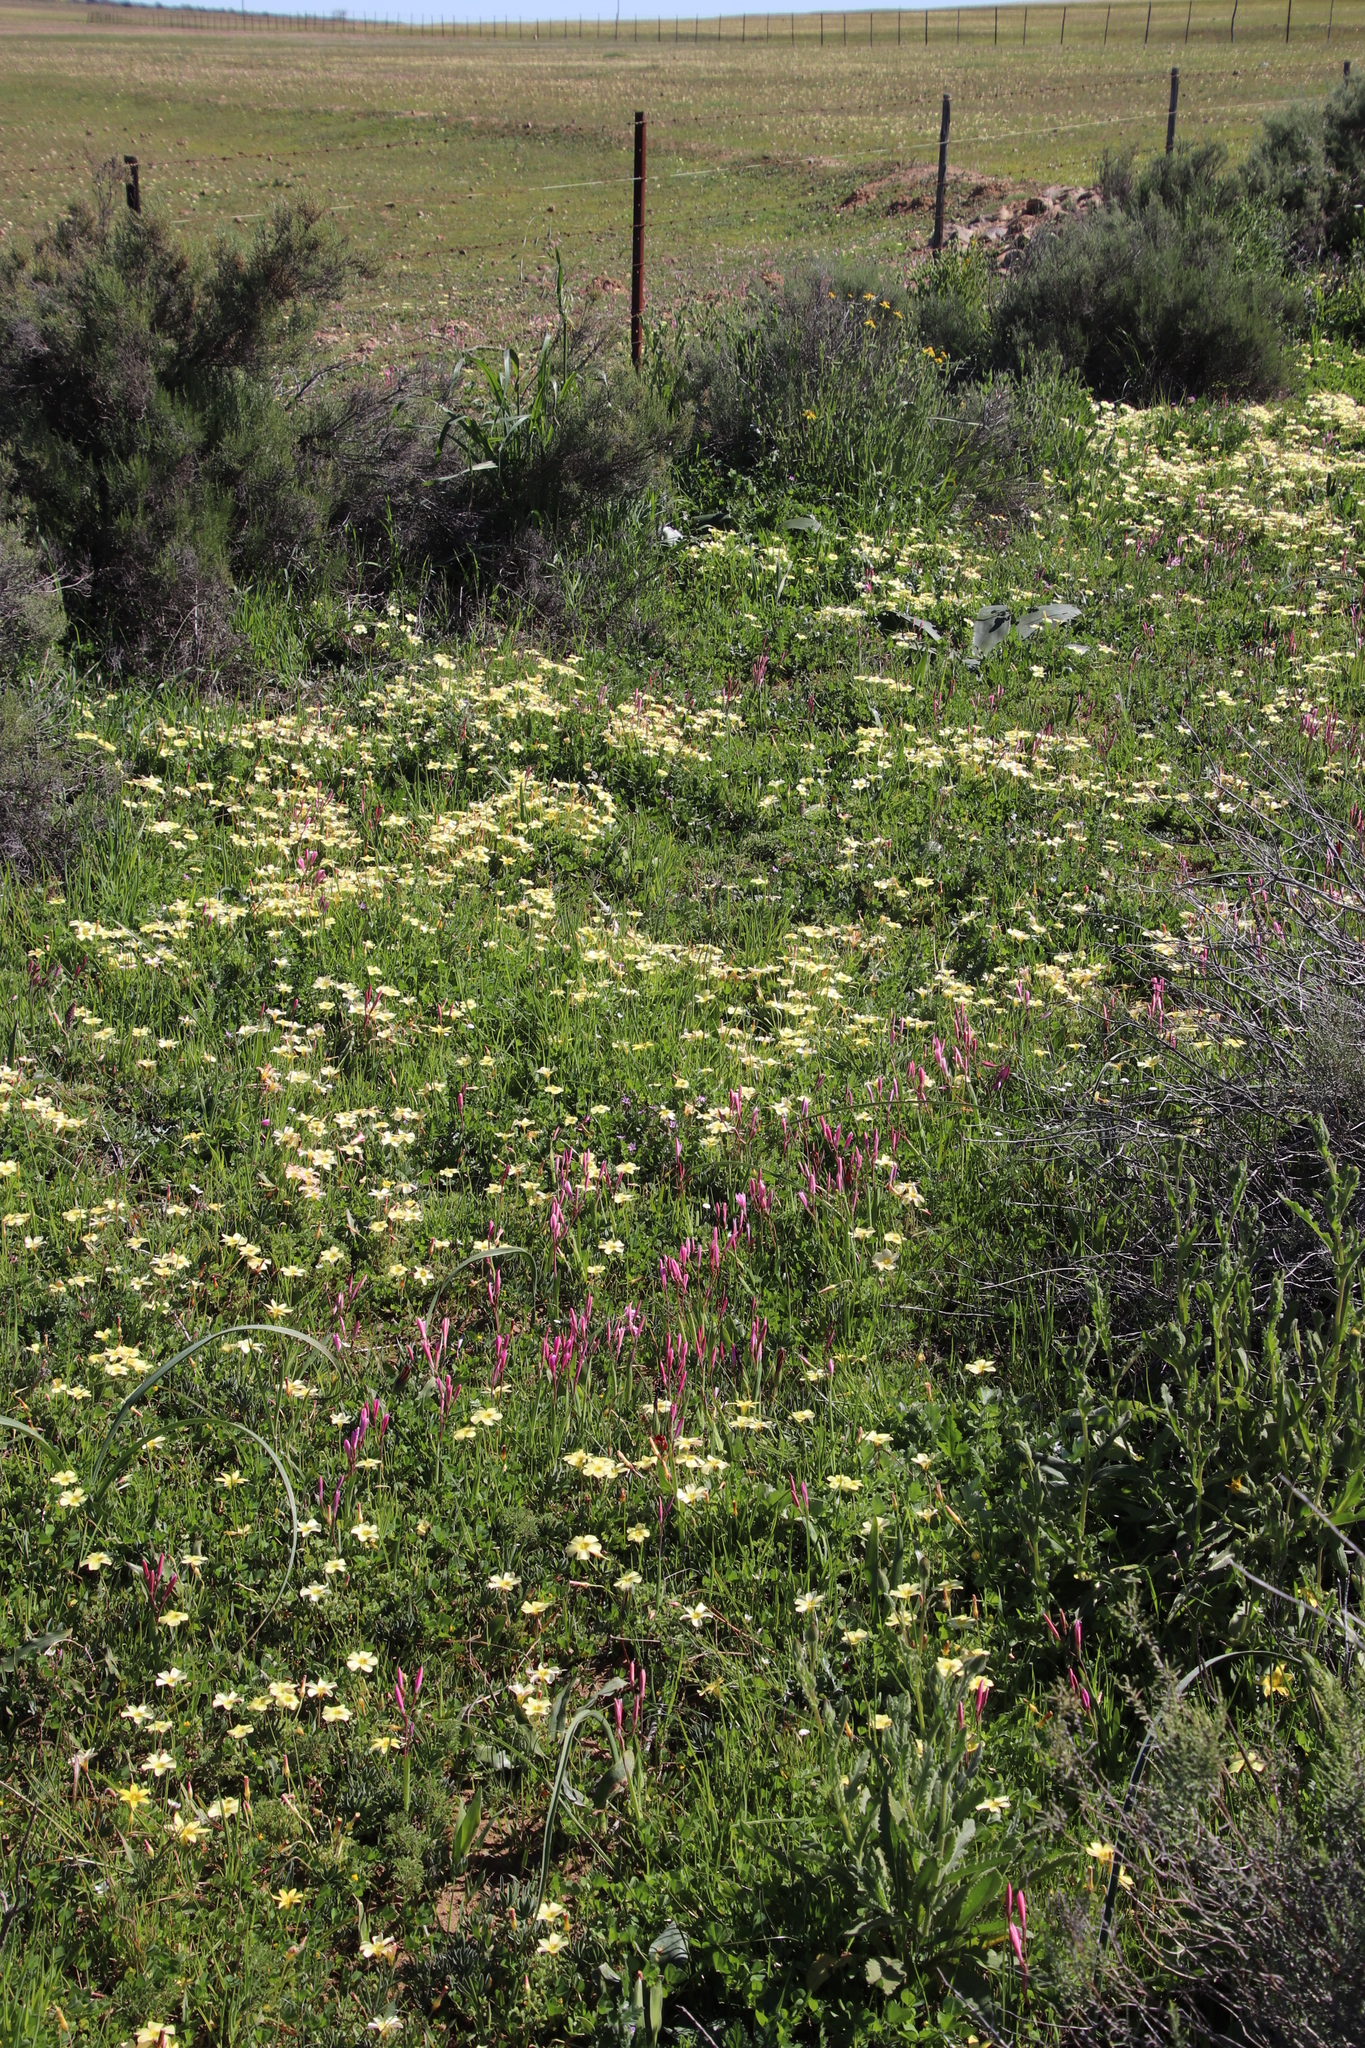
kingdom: Plantae
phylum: Tracheophyta
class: Magnoliopsida
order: Oxalidales
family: Oxalidaceae
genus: Oxalis
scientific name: Oxalis obtusa
